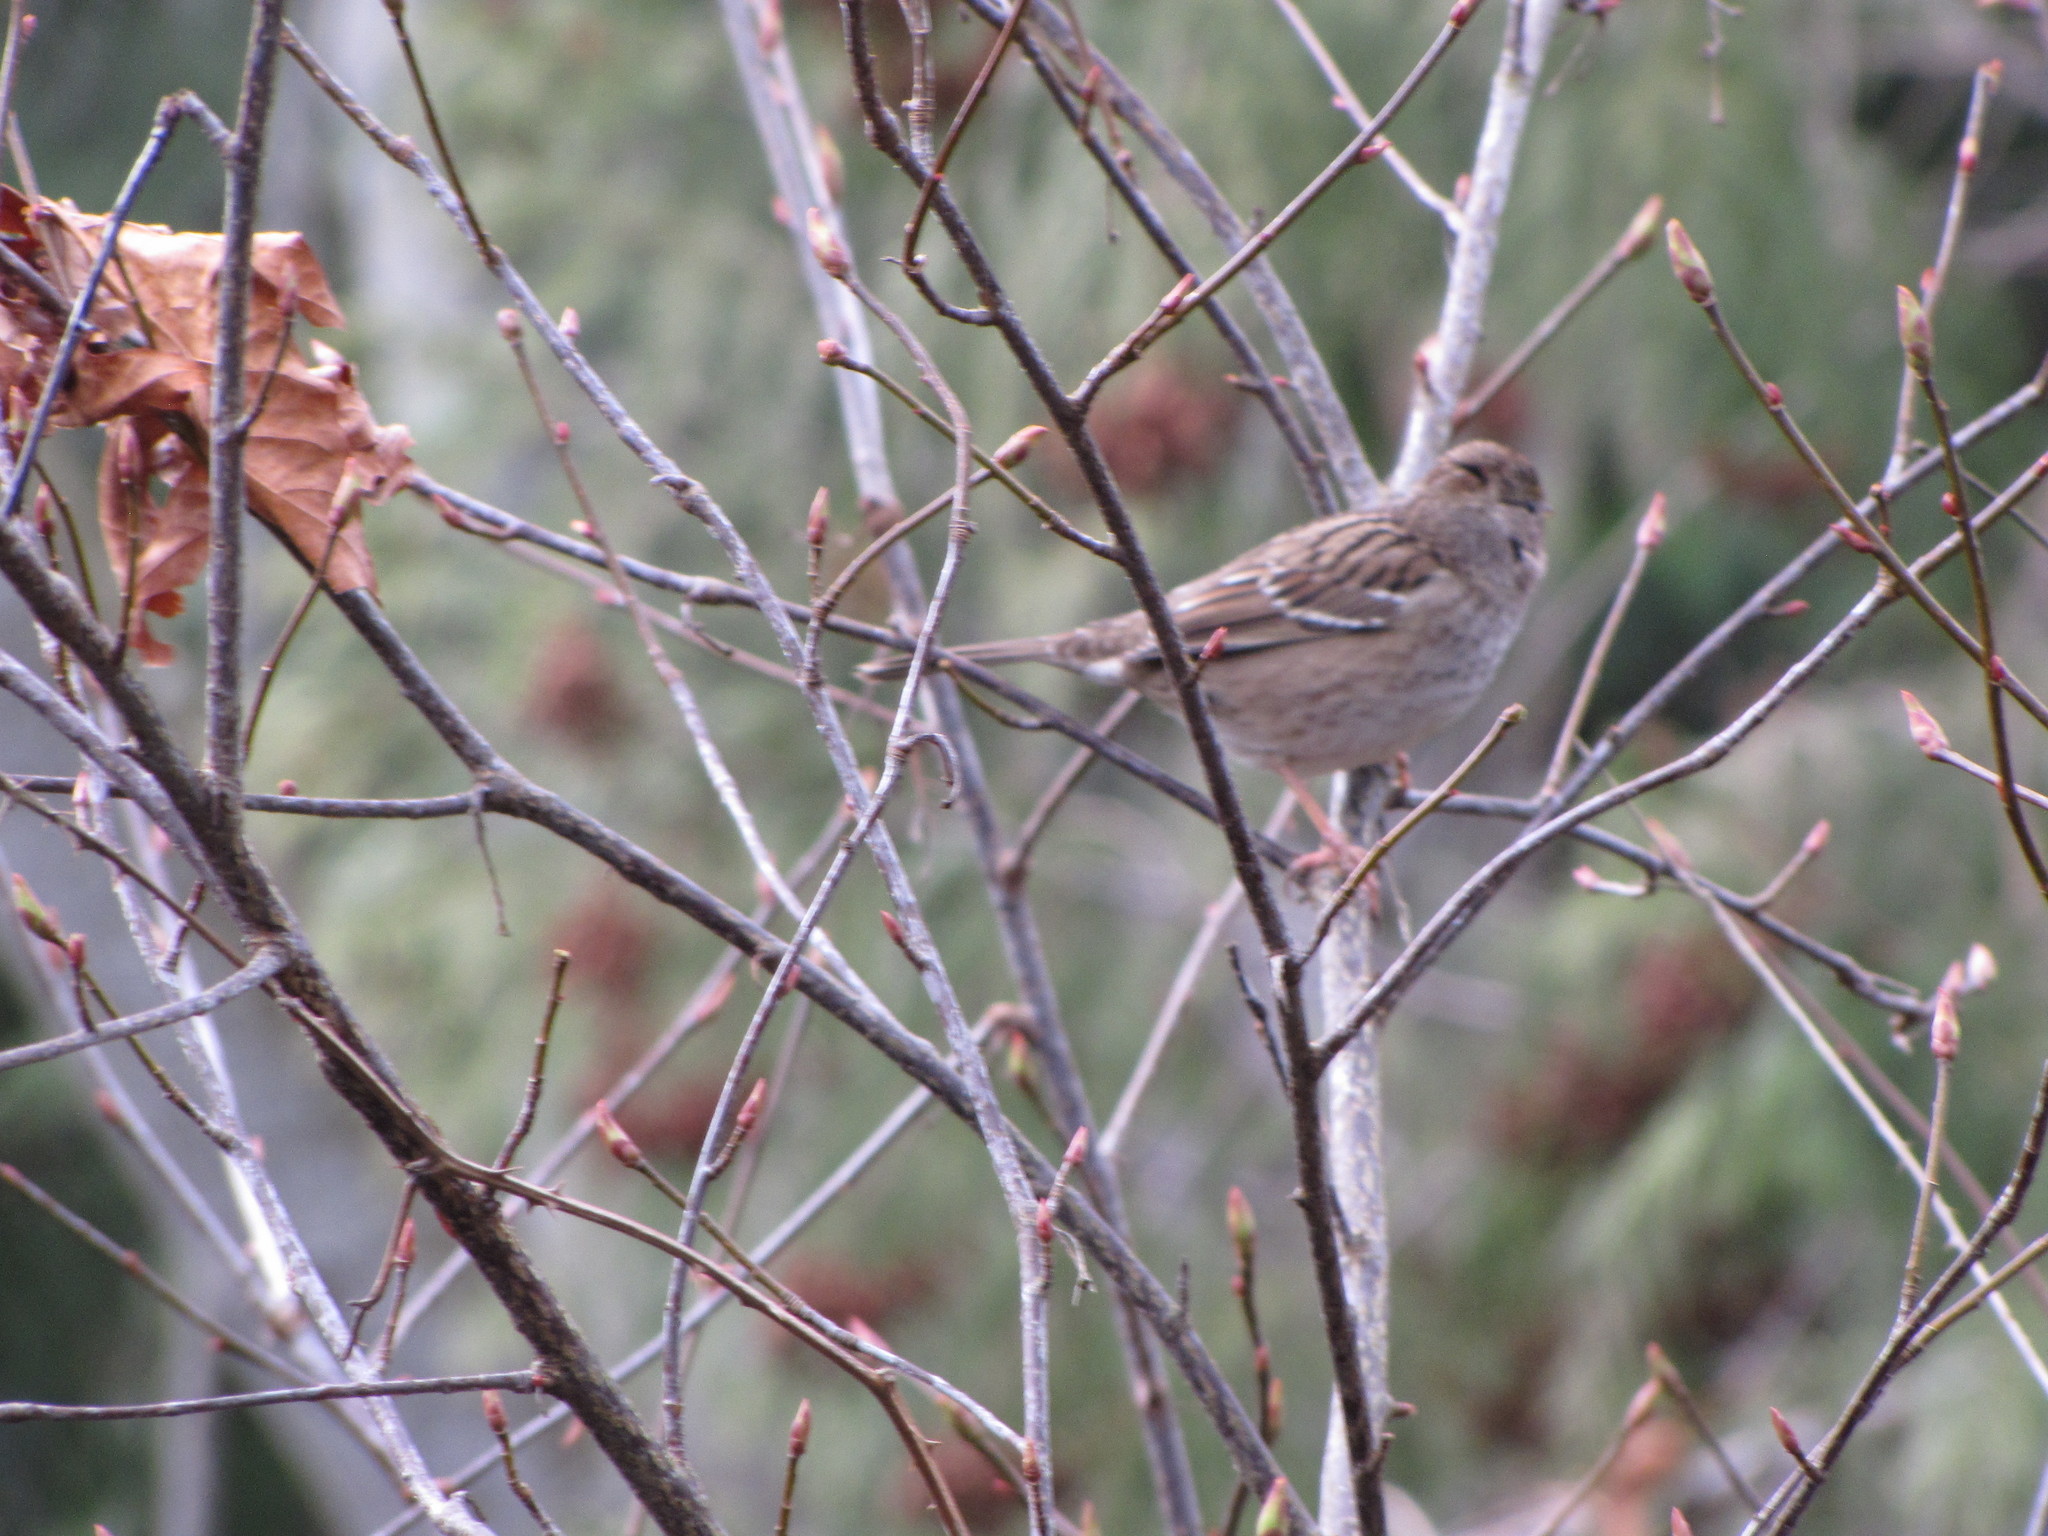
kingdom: Animalia
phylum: Chordata
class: Aves
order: Passeriformes
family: Passerellidae
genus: Zonotrichia
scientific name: Zonotrichia atricapilla
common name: Golden-crowned sparrow
